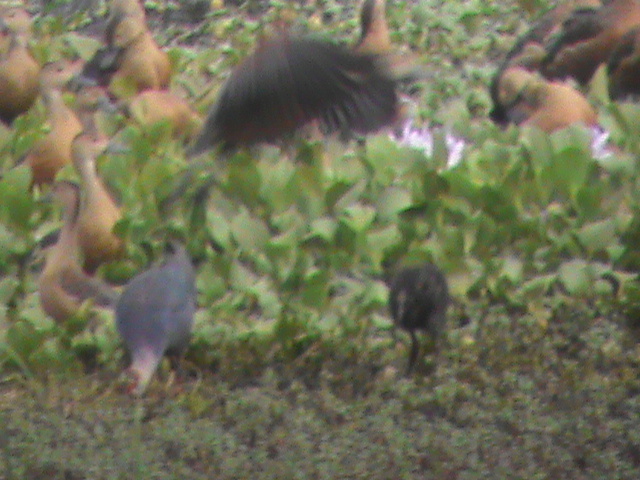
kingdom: Animalia
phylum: Chordata
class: Aves
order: Gruiformes
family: Rallidae
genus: Porphyrio
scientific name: Porphyrio porphyrio
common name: Purple swamphen
